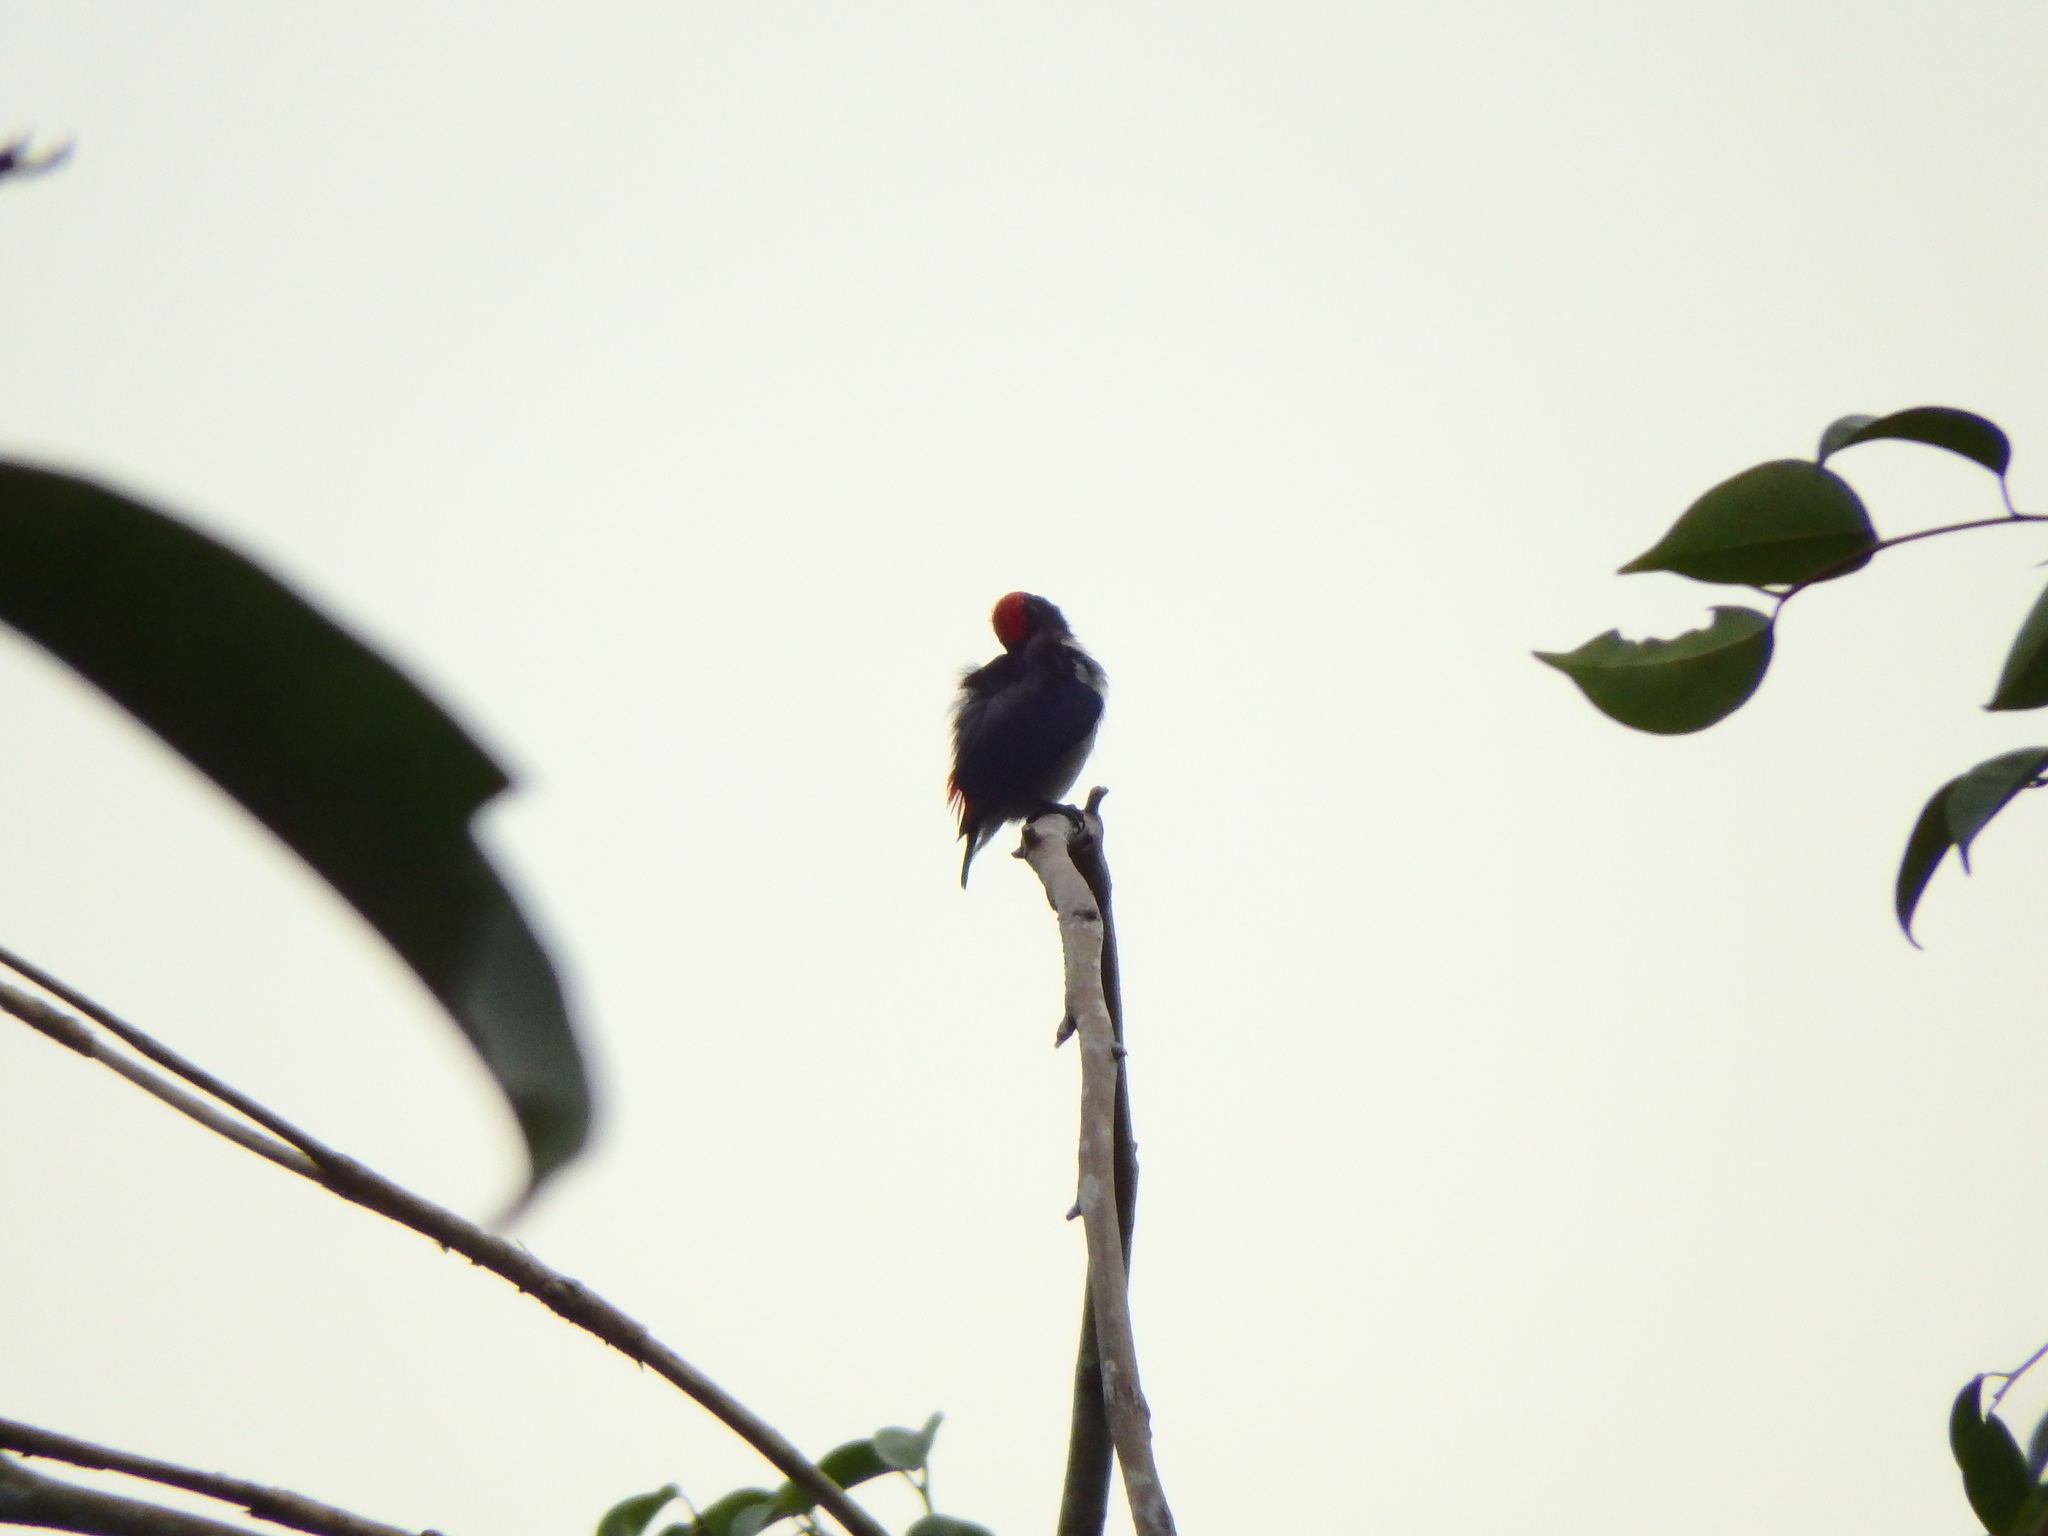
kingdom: Animalia
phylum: Chordata
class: Aves
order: Passeriformes
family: Dicaeidae
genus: Dicaeum
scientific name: Dicaeum cruentatum
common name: Scarlet-backed flowerpecker
